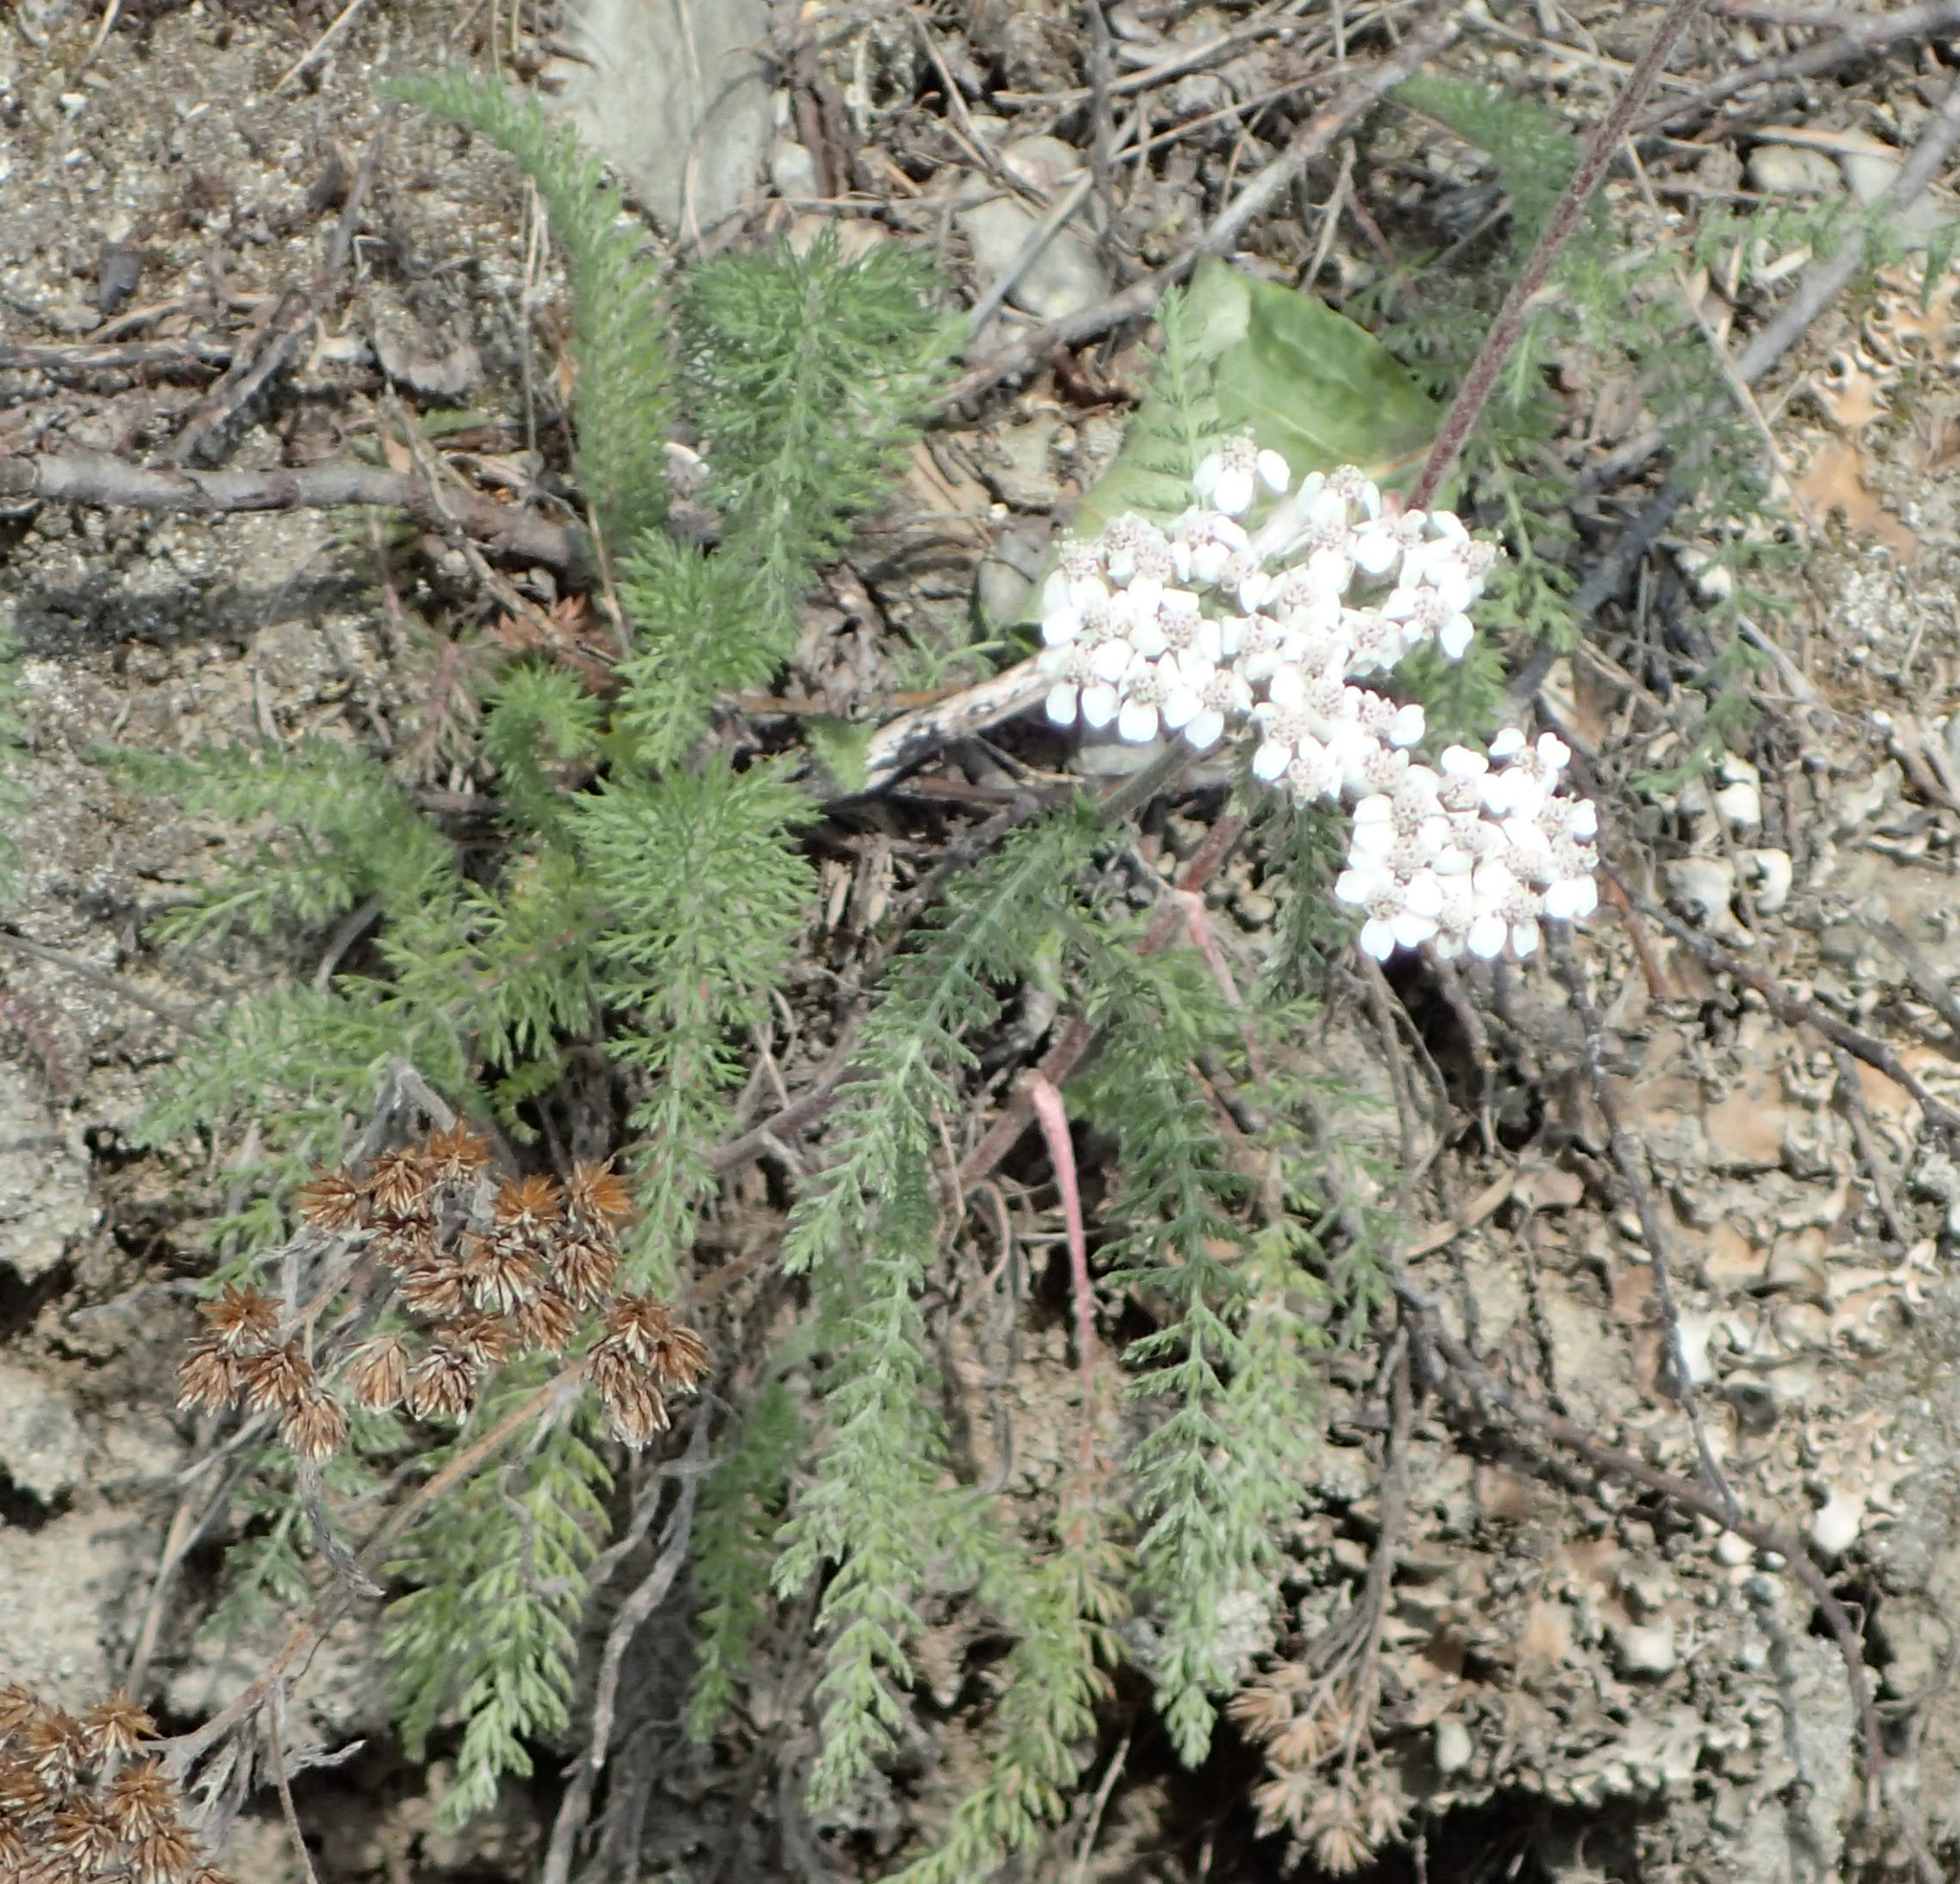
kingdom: Plantae
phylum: Tracheophyta
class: Magnoliopsida
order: Asterales
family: Asteraceae
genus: Achillea
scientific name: Achillea millefolium
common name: Yarrow
